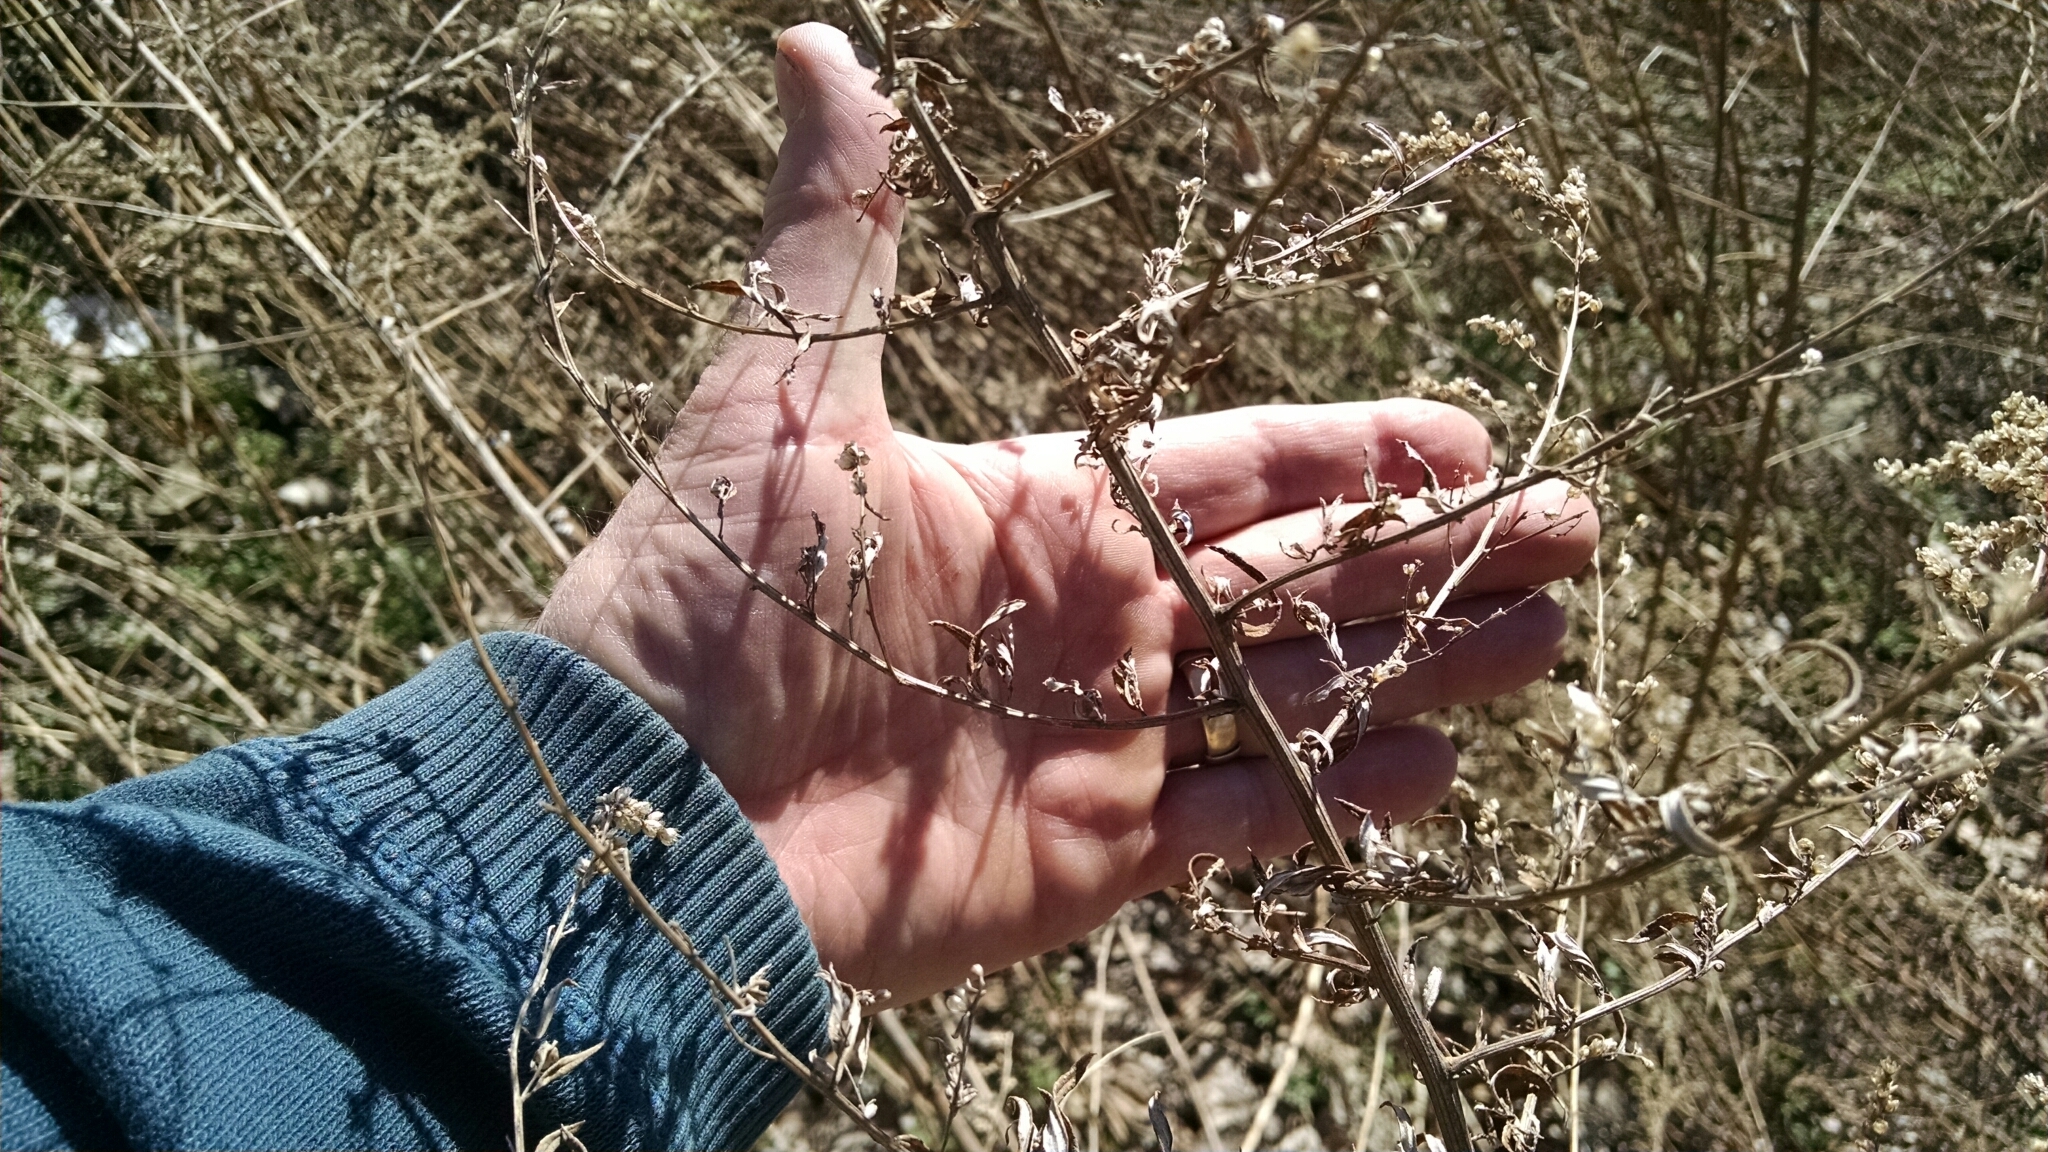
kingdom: Plantae
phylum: Tracheophyta
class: Magnoliopsida
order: Asterales
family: Asteraceae
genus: Artemisia
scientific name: Artemisia vulgaris
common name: Mugwort
